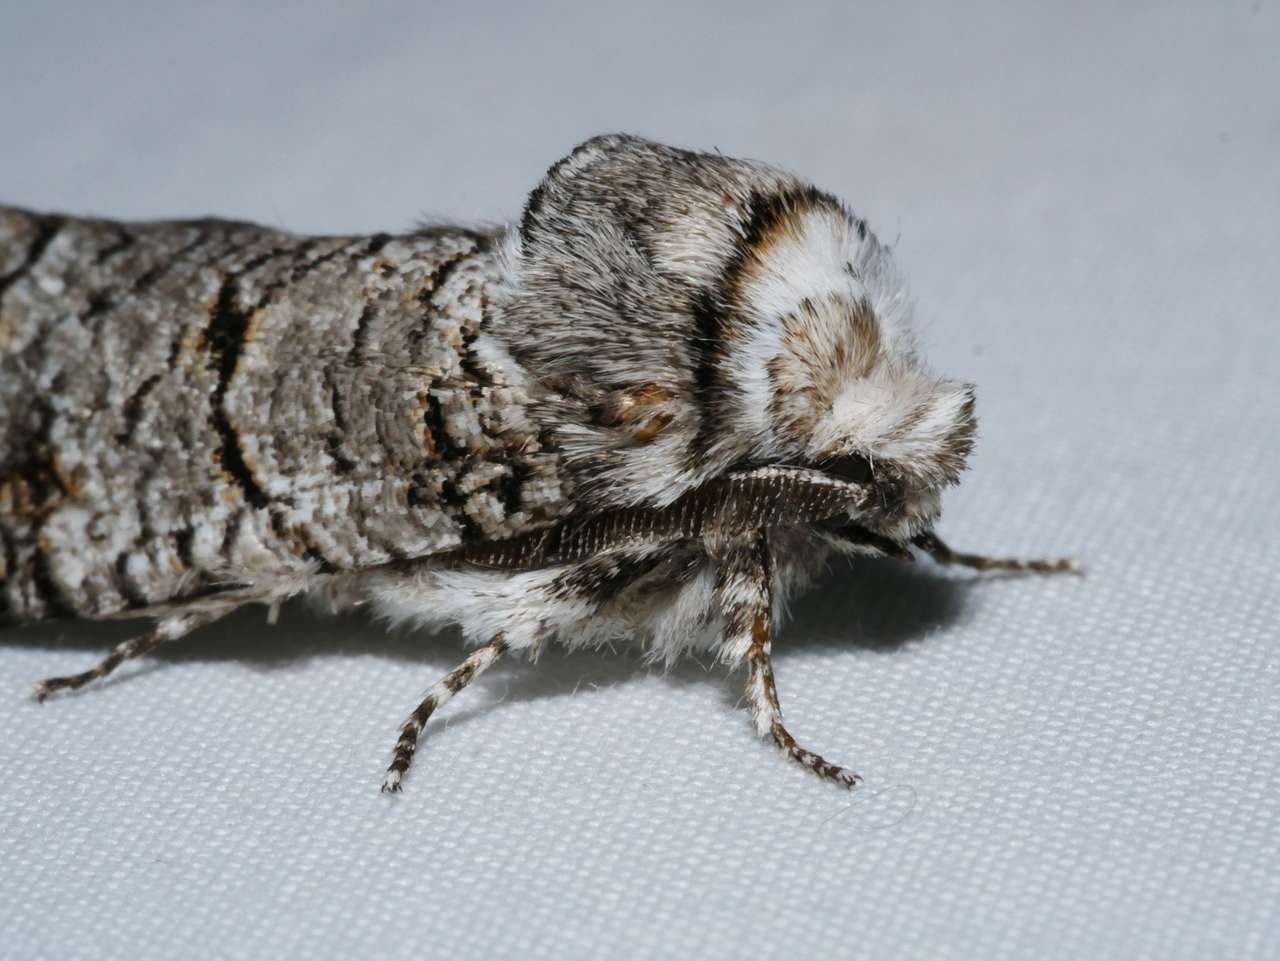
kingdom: Animalia
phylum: Arthropoda
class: Insecta
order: Lepidoptera
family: Cossidae
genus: Zyganisus
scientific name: Zyganisus propedia
